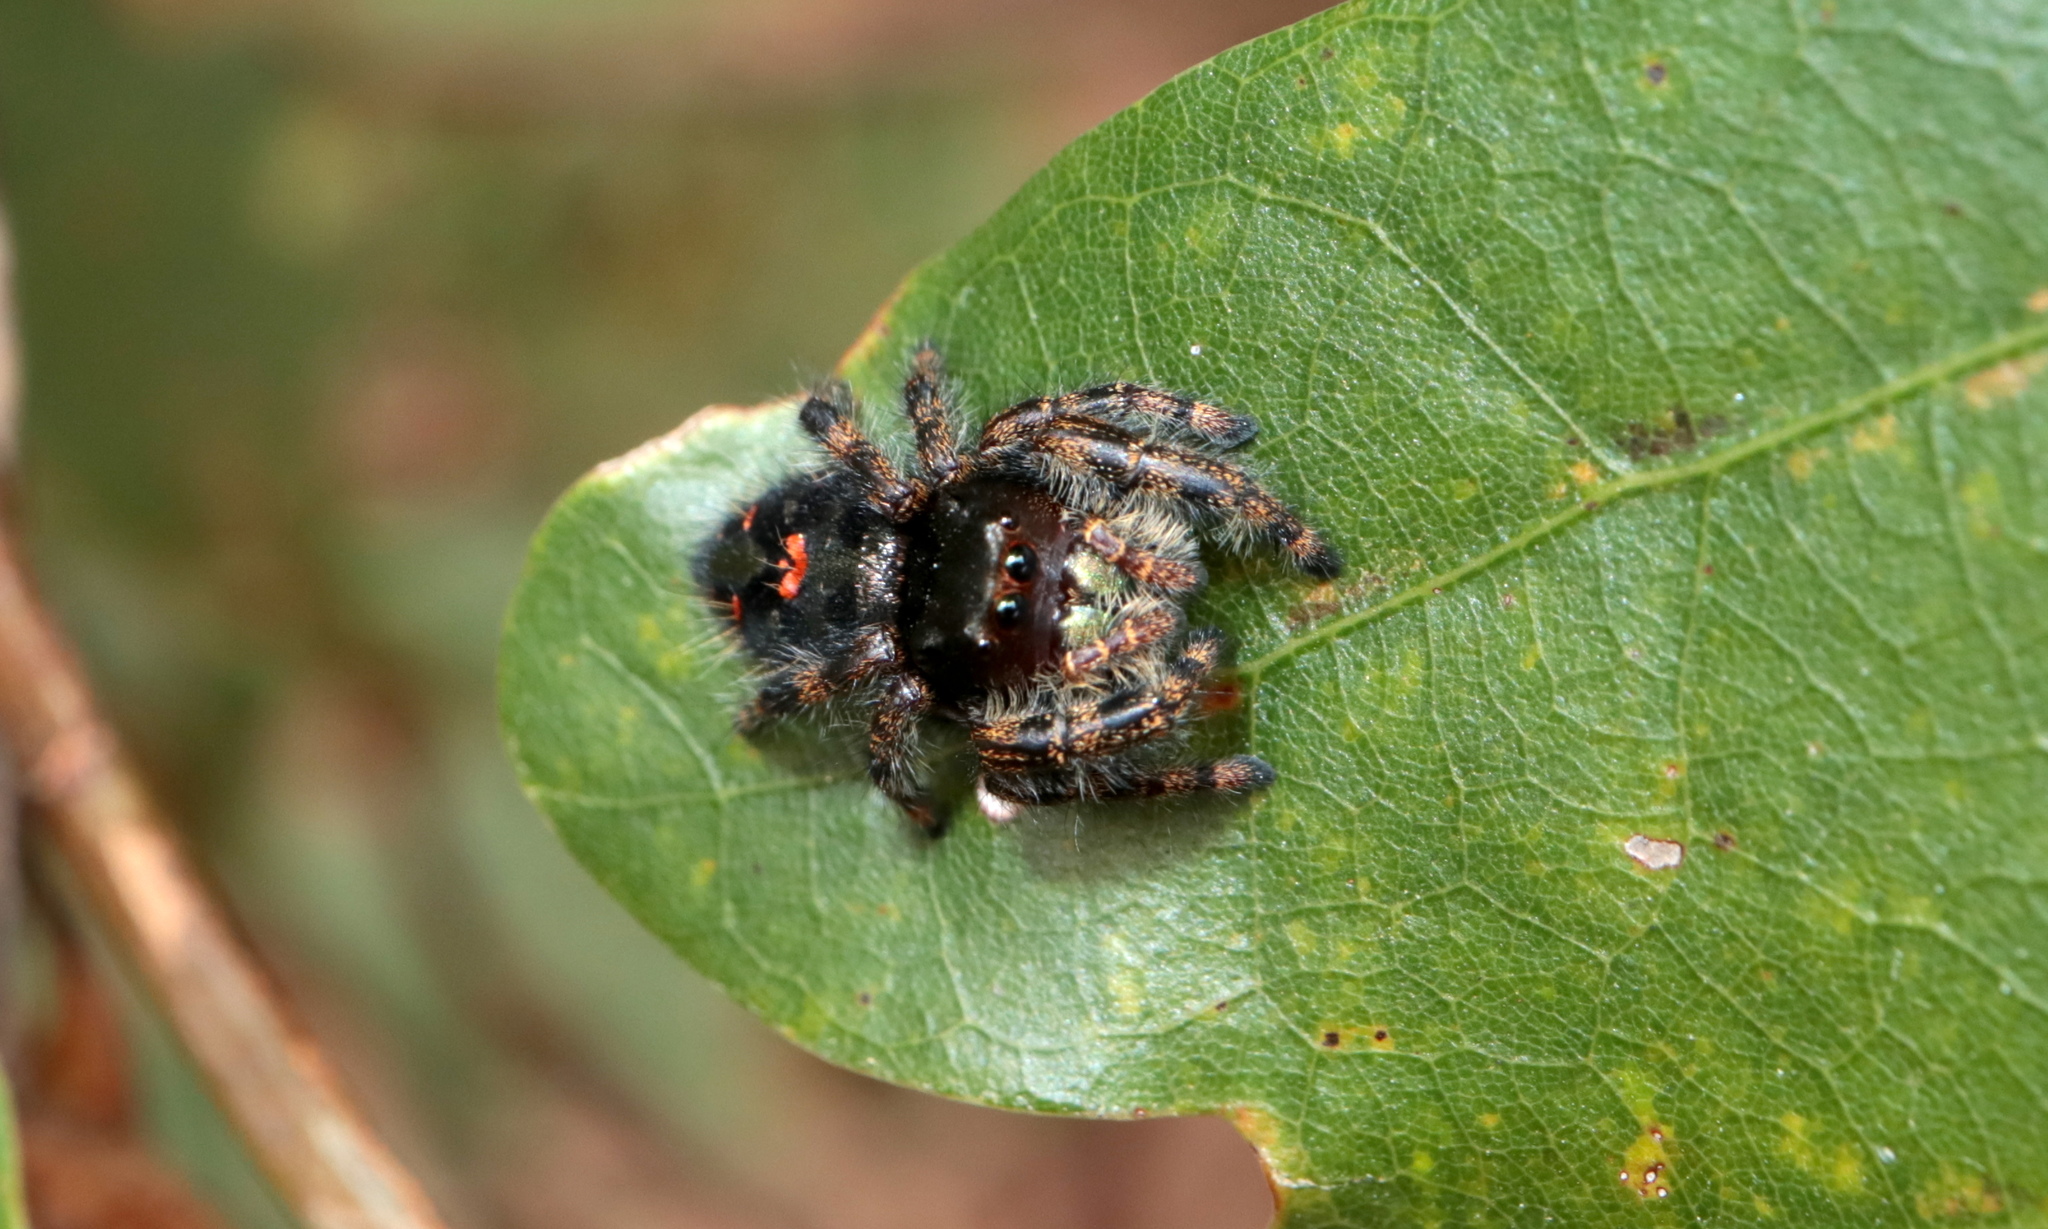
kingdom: Animalia
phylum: Arthropoda
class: Arachnida
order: Araneae
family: Salticidae
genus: Phidippus
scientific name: Phidippus audax
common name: Bold jumper
